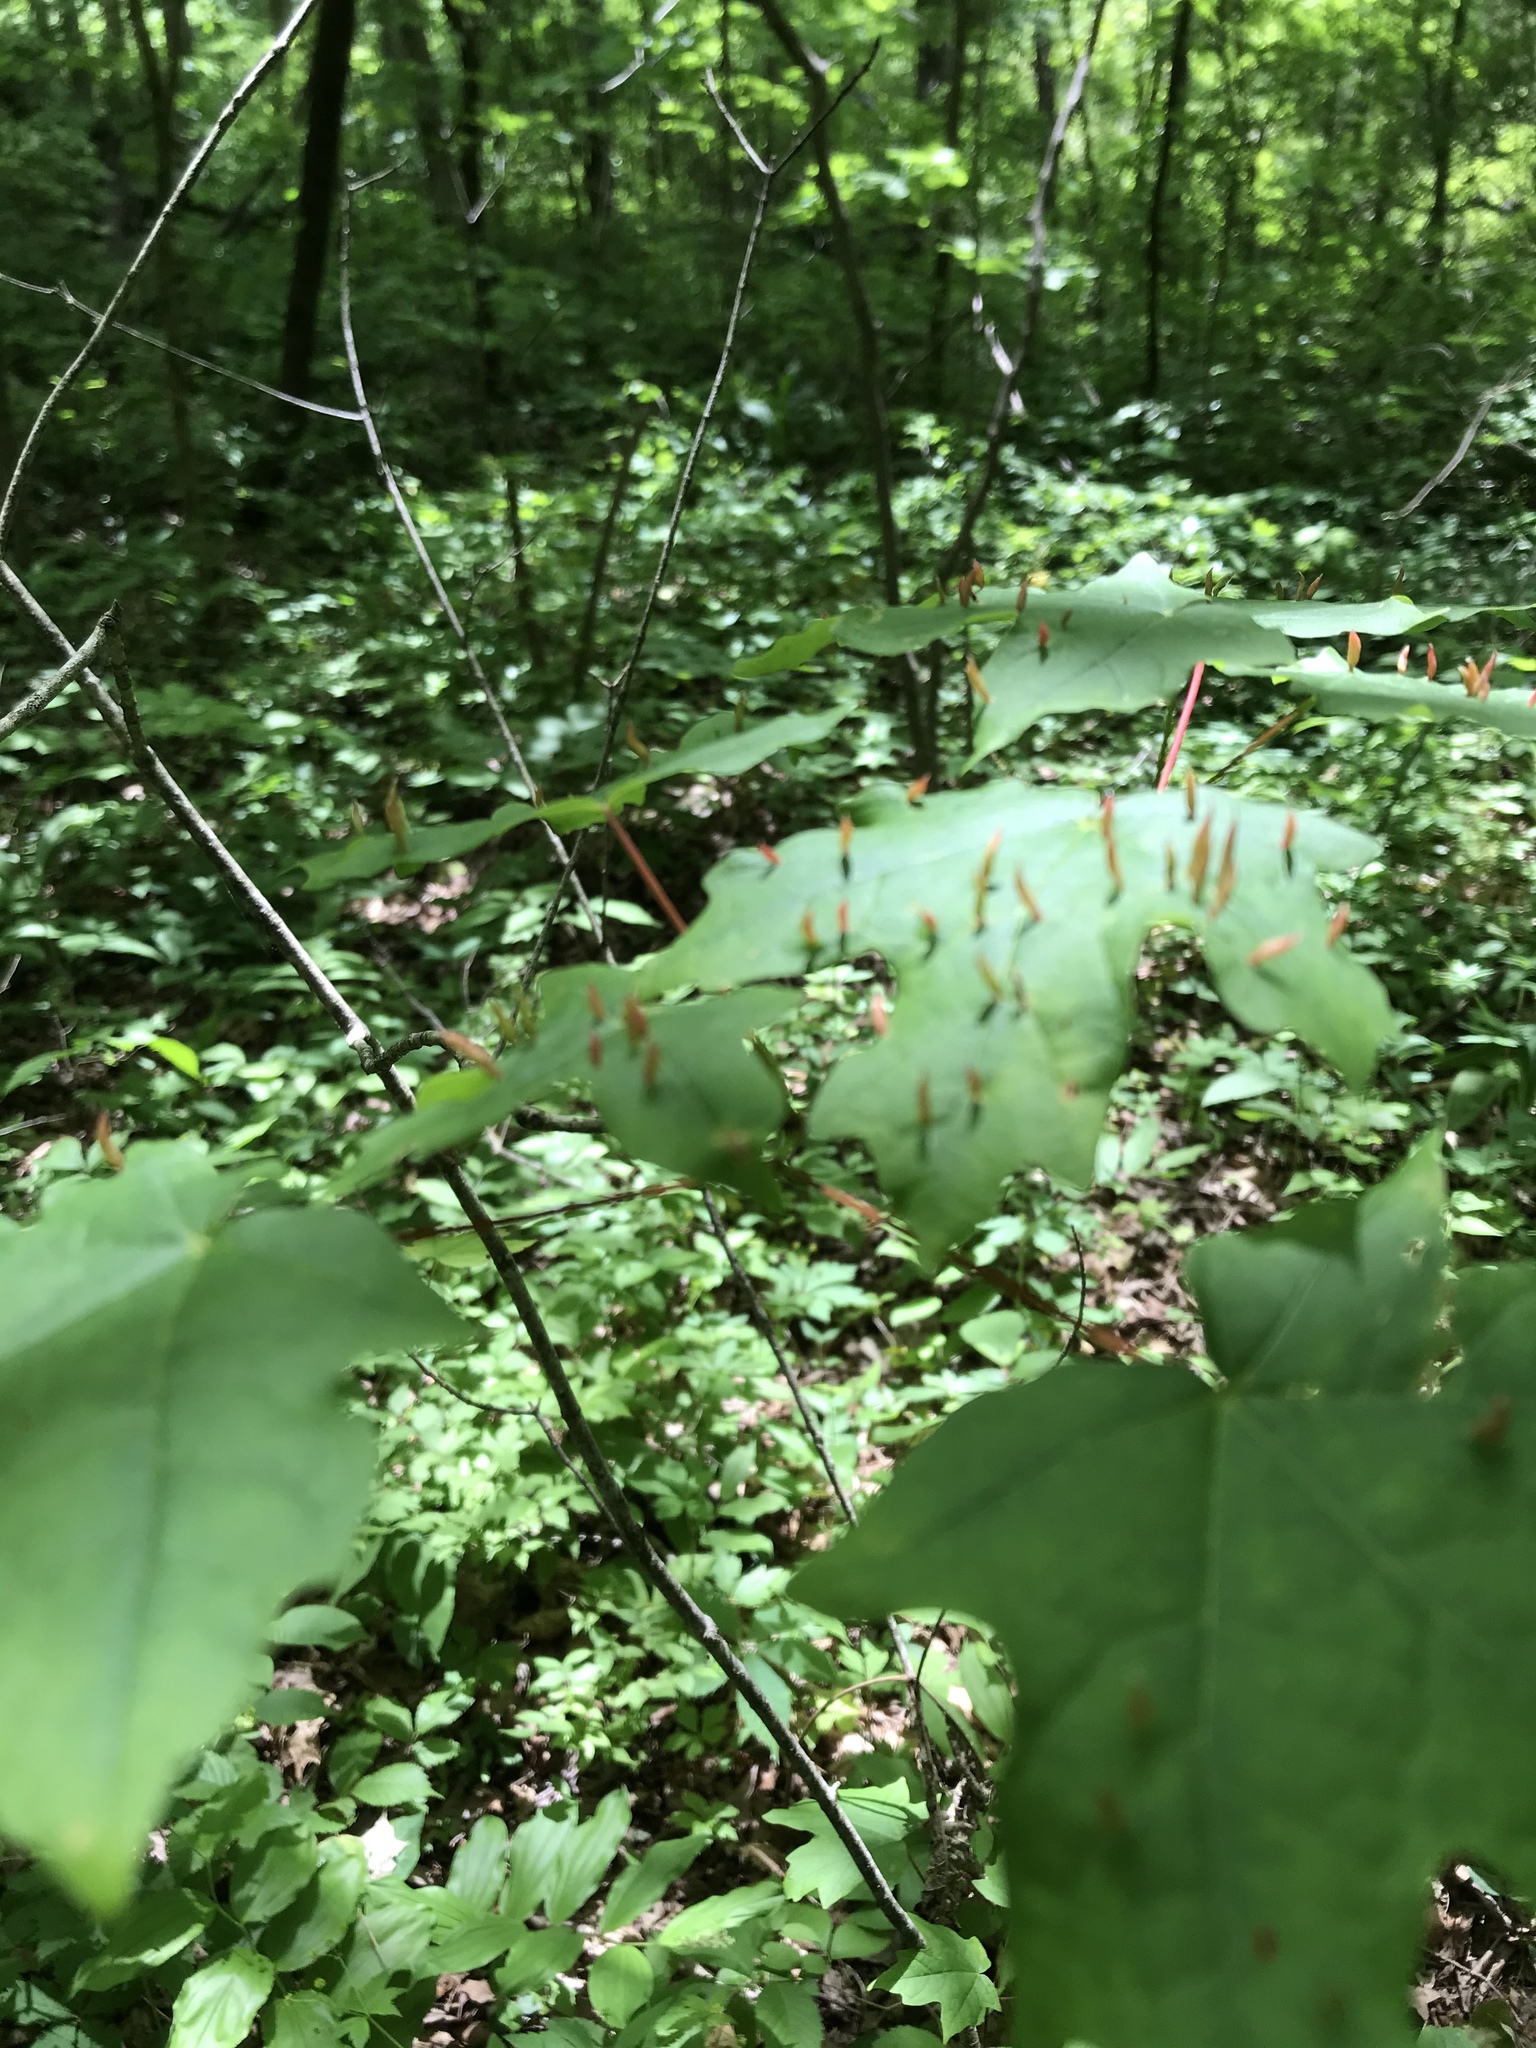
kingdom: Animalia
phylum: Arthropoda
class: Arachnida
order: Trombidiformes
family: Eriophyidae
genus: Vasates
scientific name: Vasates aceriscrumena
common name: Maple spindle gall mite
